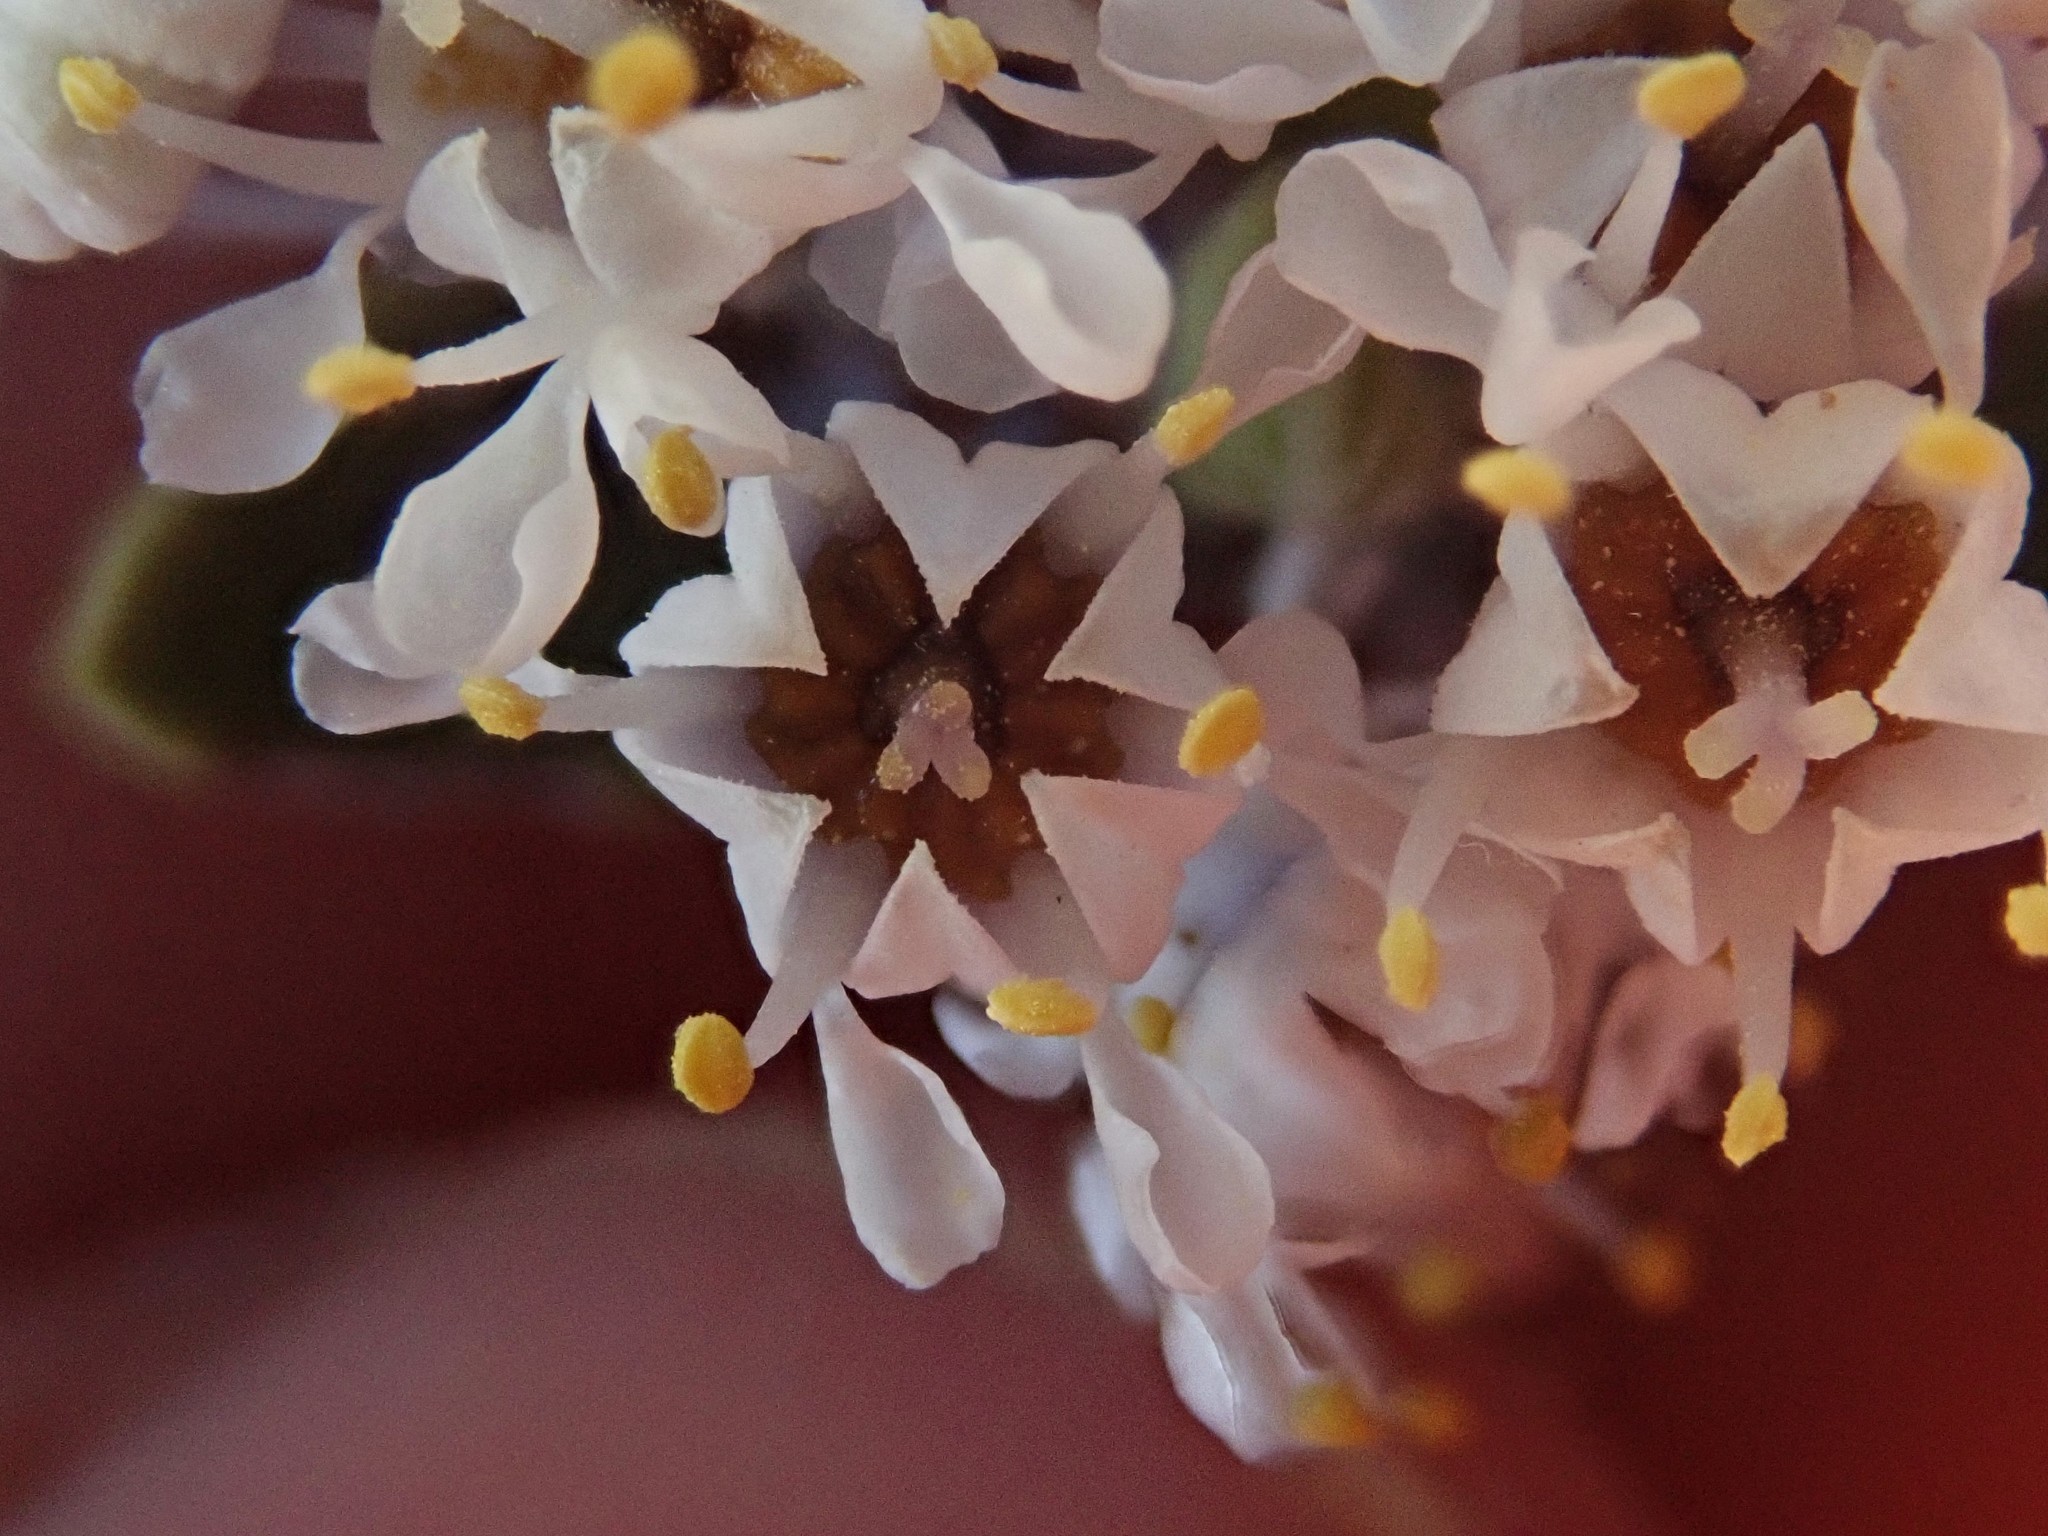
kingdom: Plantae
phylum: Tracheophyta
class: Magnoliopsida
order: Rosales
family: Rhamnaceae
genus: Ceanothus
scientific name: Ceanothus pauciflorus
